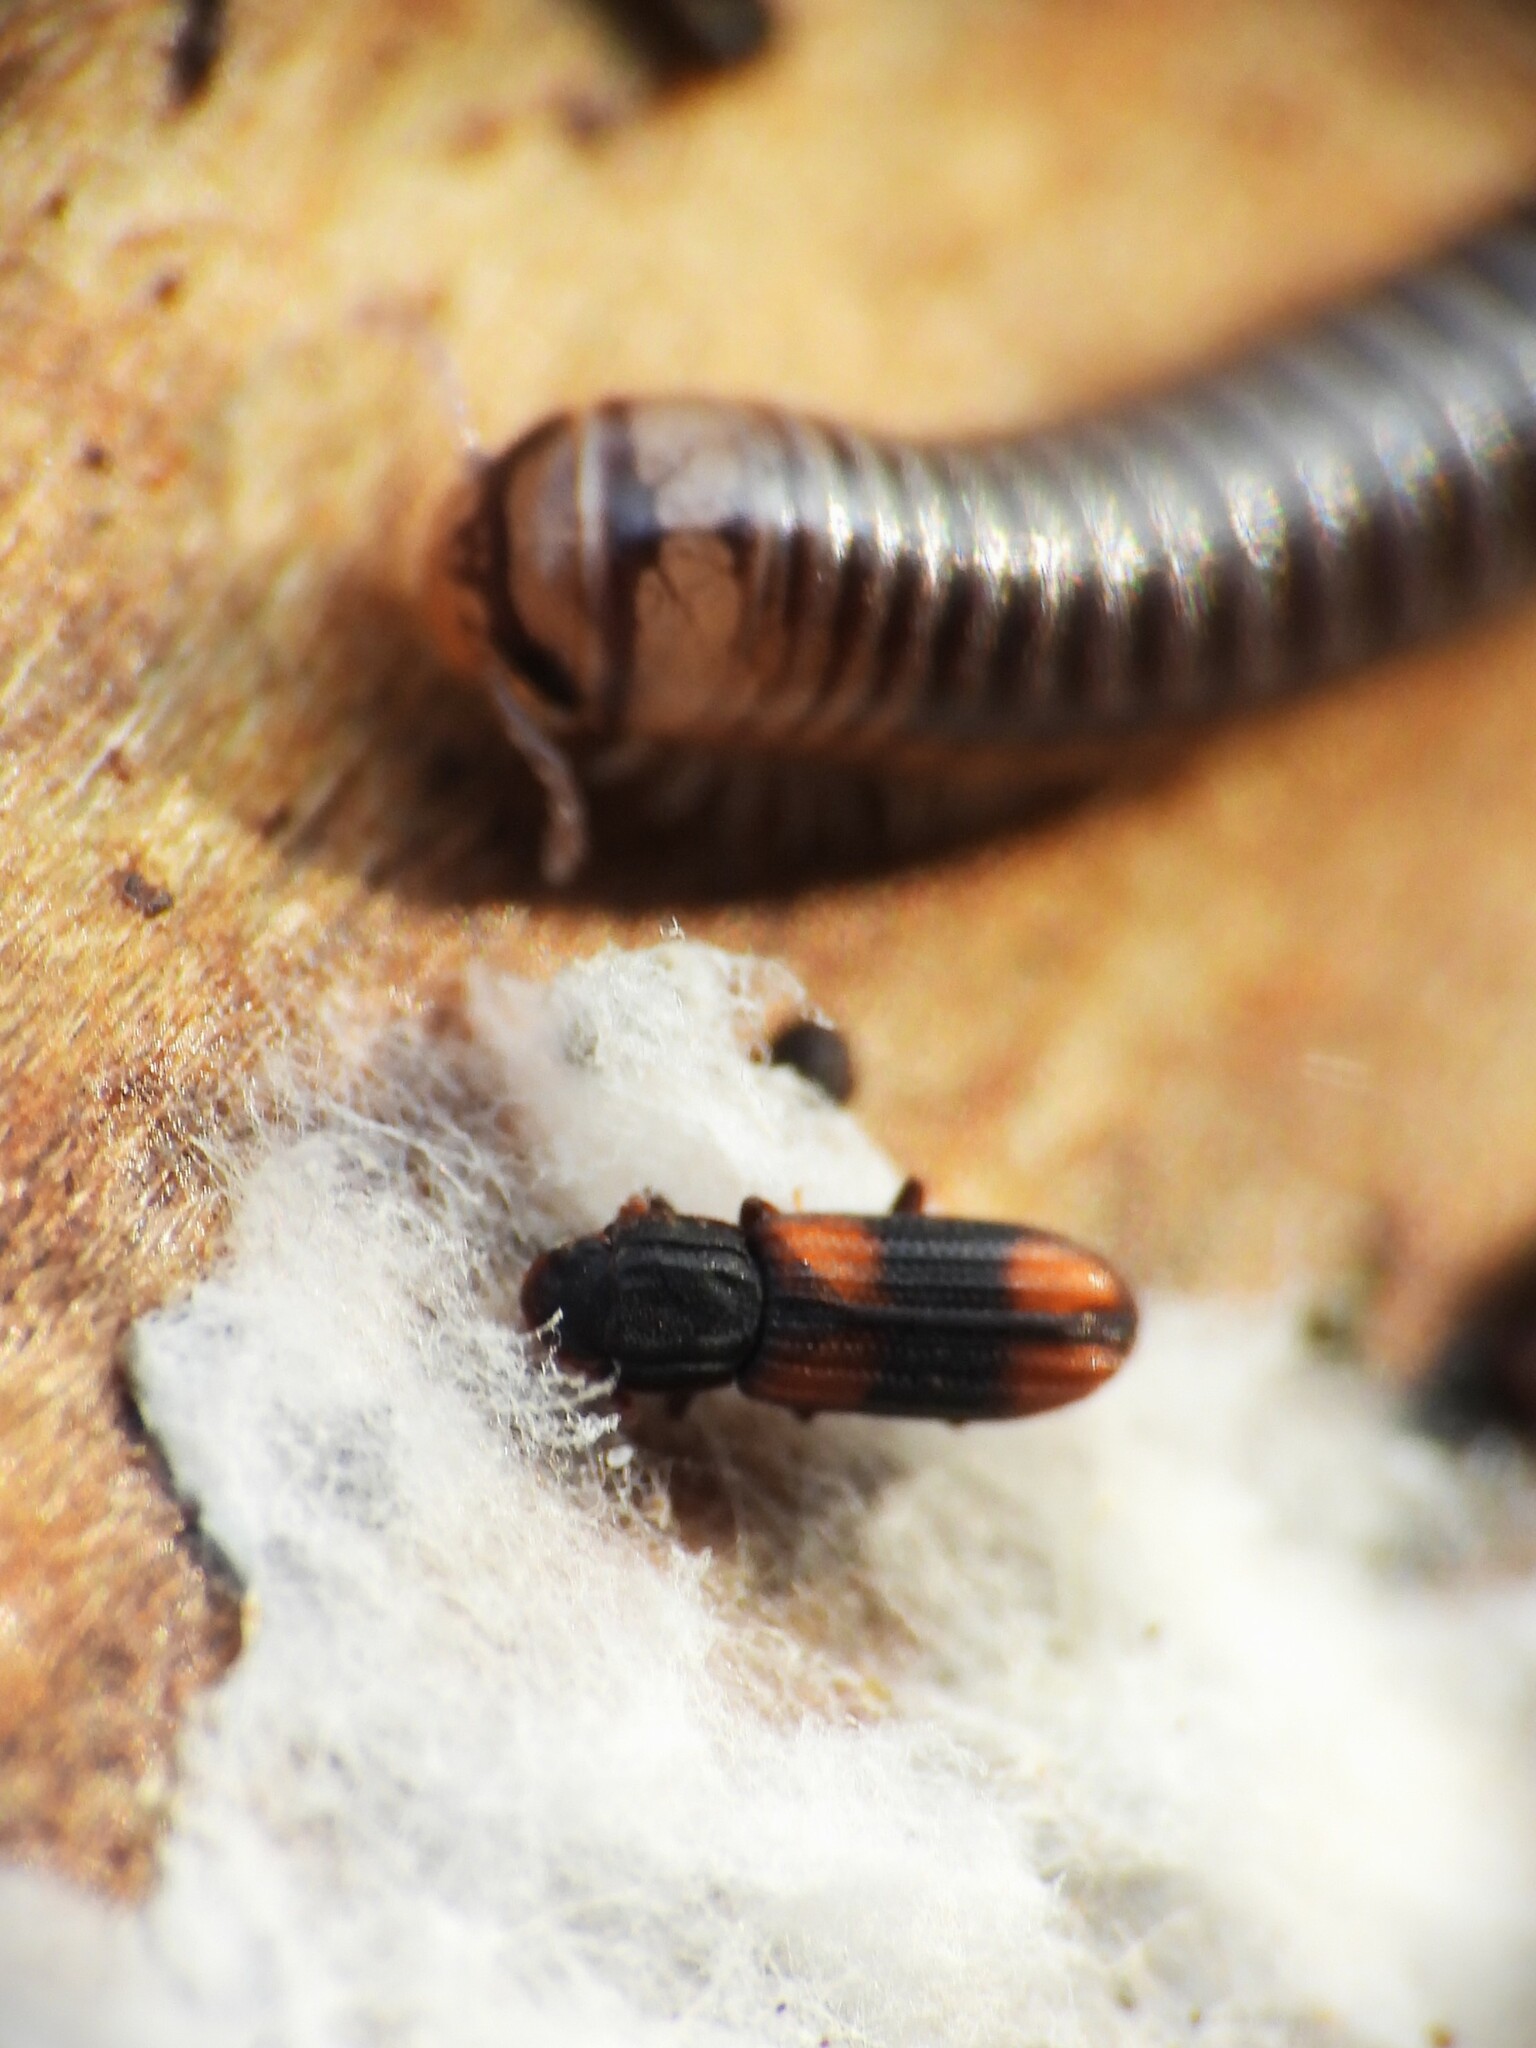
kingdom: Animalia
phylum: Arthropoda
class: Insecta
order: Coleoptera
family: Zopheridae
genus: Bitoma
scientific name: Bitoma crenata
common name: Bark beetle
